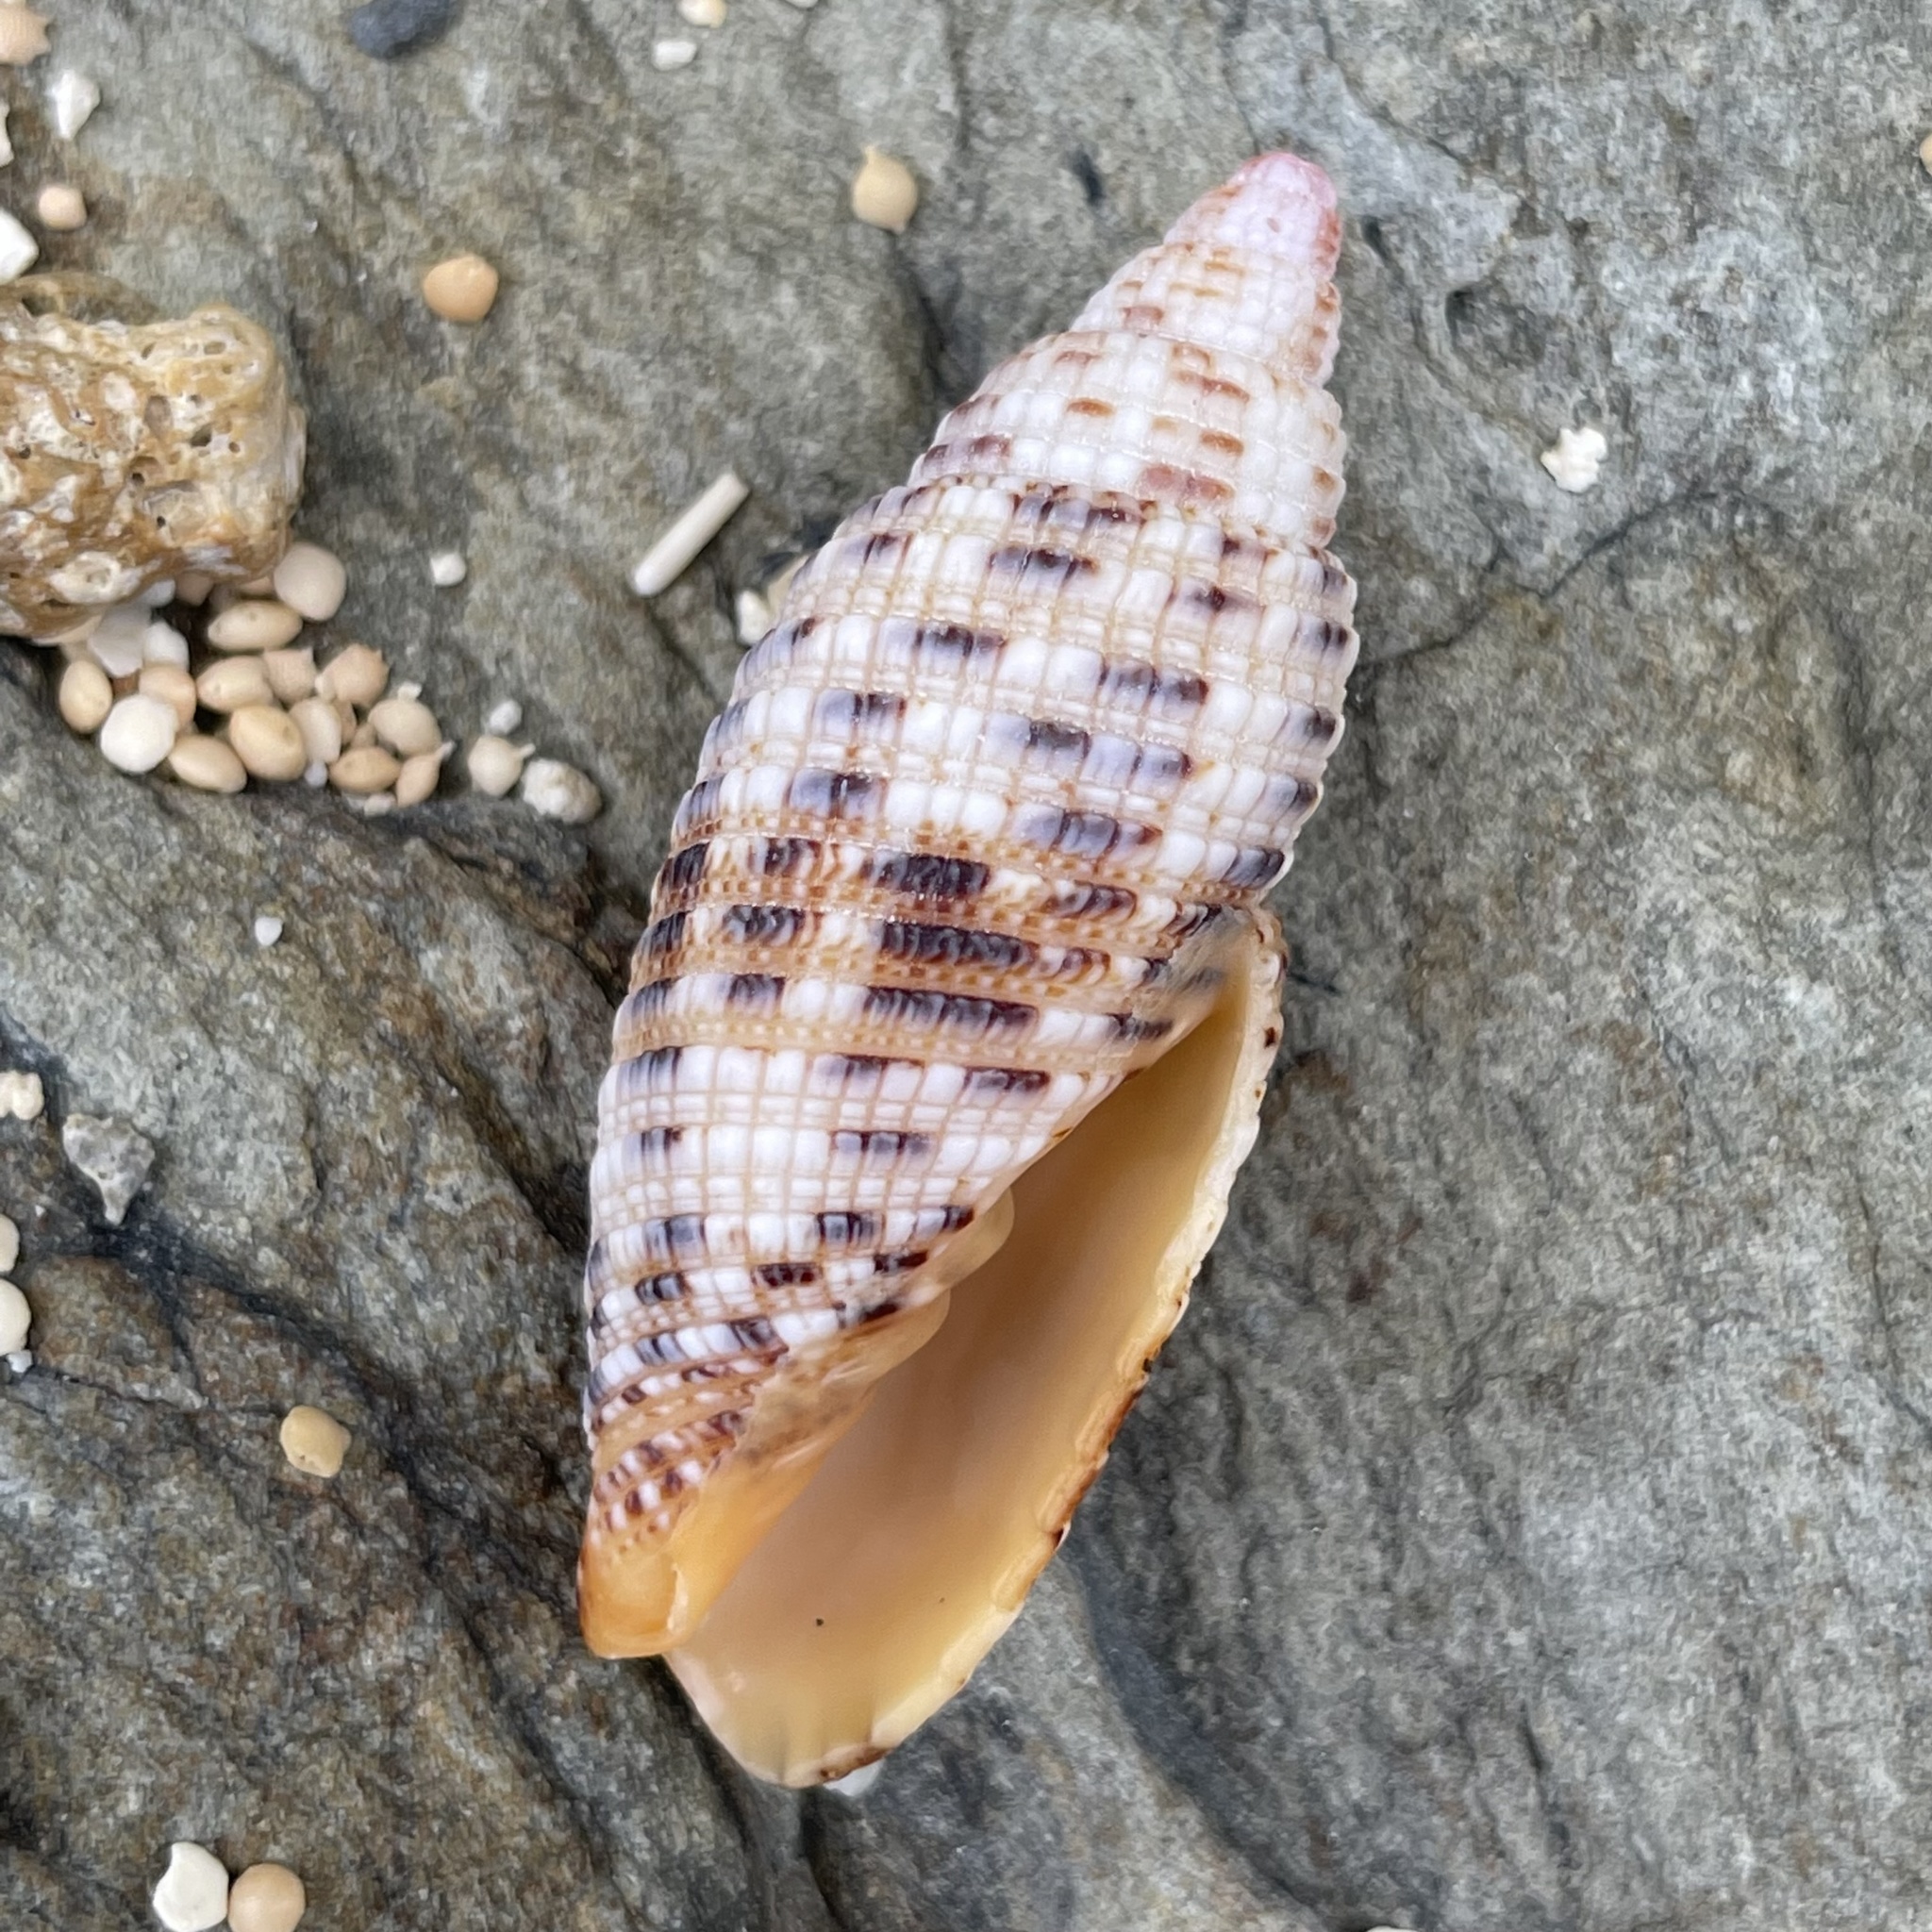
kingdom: Animalia
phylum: Mollusca
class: Gastropoda
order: Neogastropoda
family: Mitridae
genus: Neocancilla
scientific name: Neocancilla papilio
